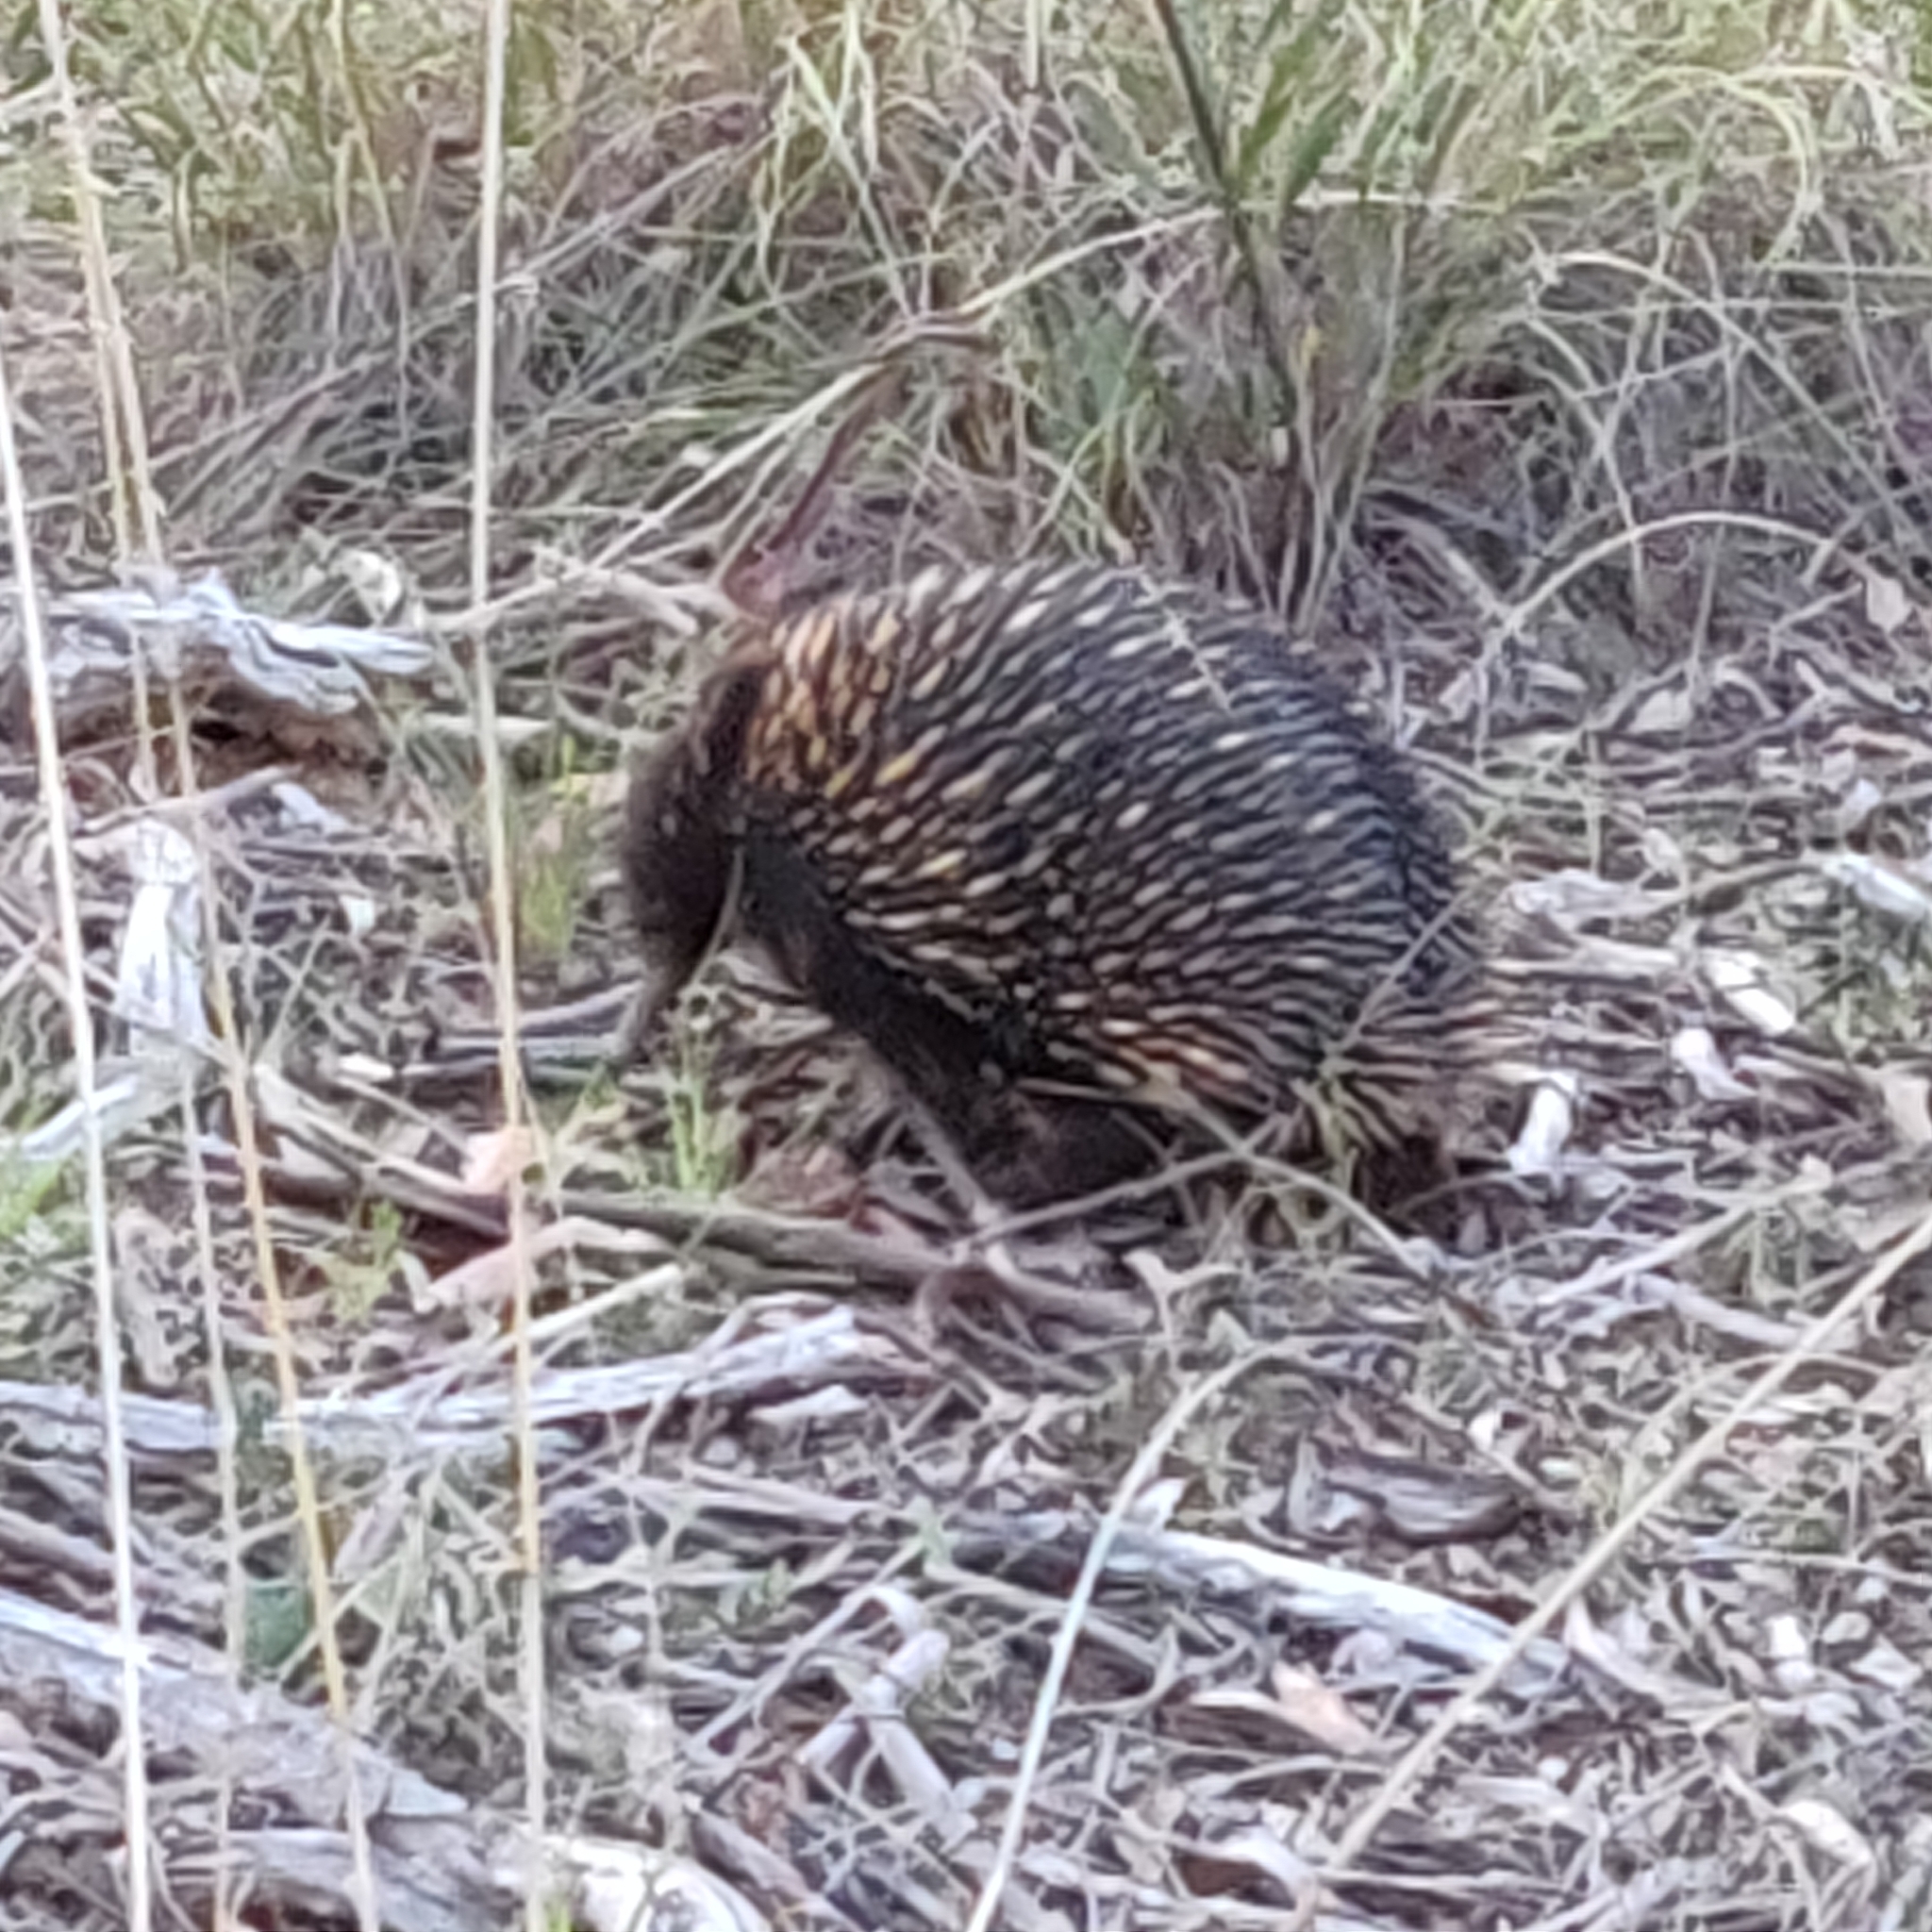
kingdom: Animalia
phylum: Chordata
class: Mammalia
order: Monotremata
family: Tachyglossidae
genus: Tachyglossus
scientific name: Tachyglossus aculeatus
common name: Short-beaked echidna
